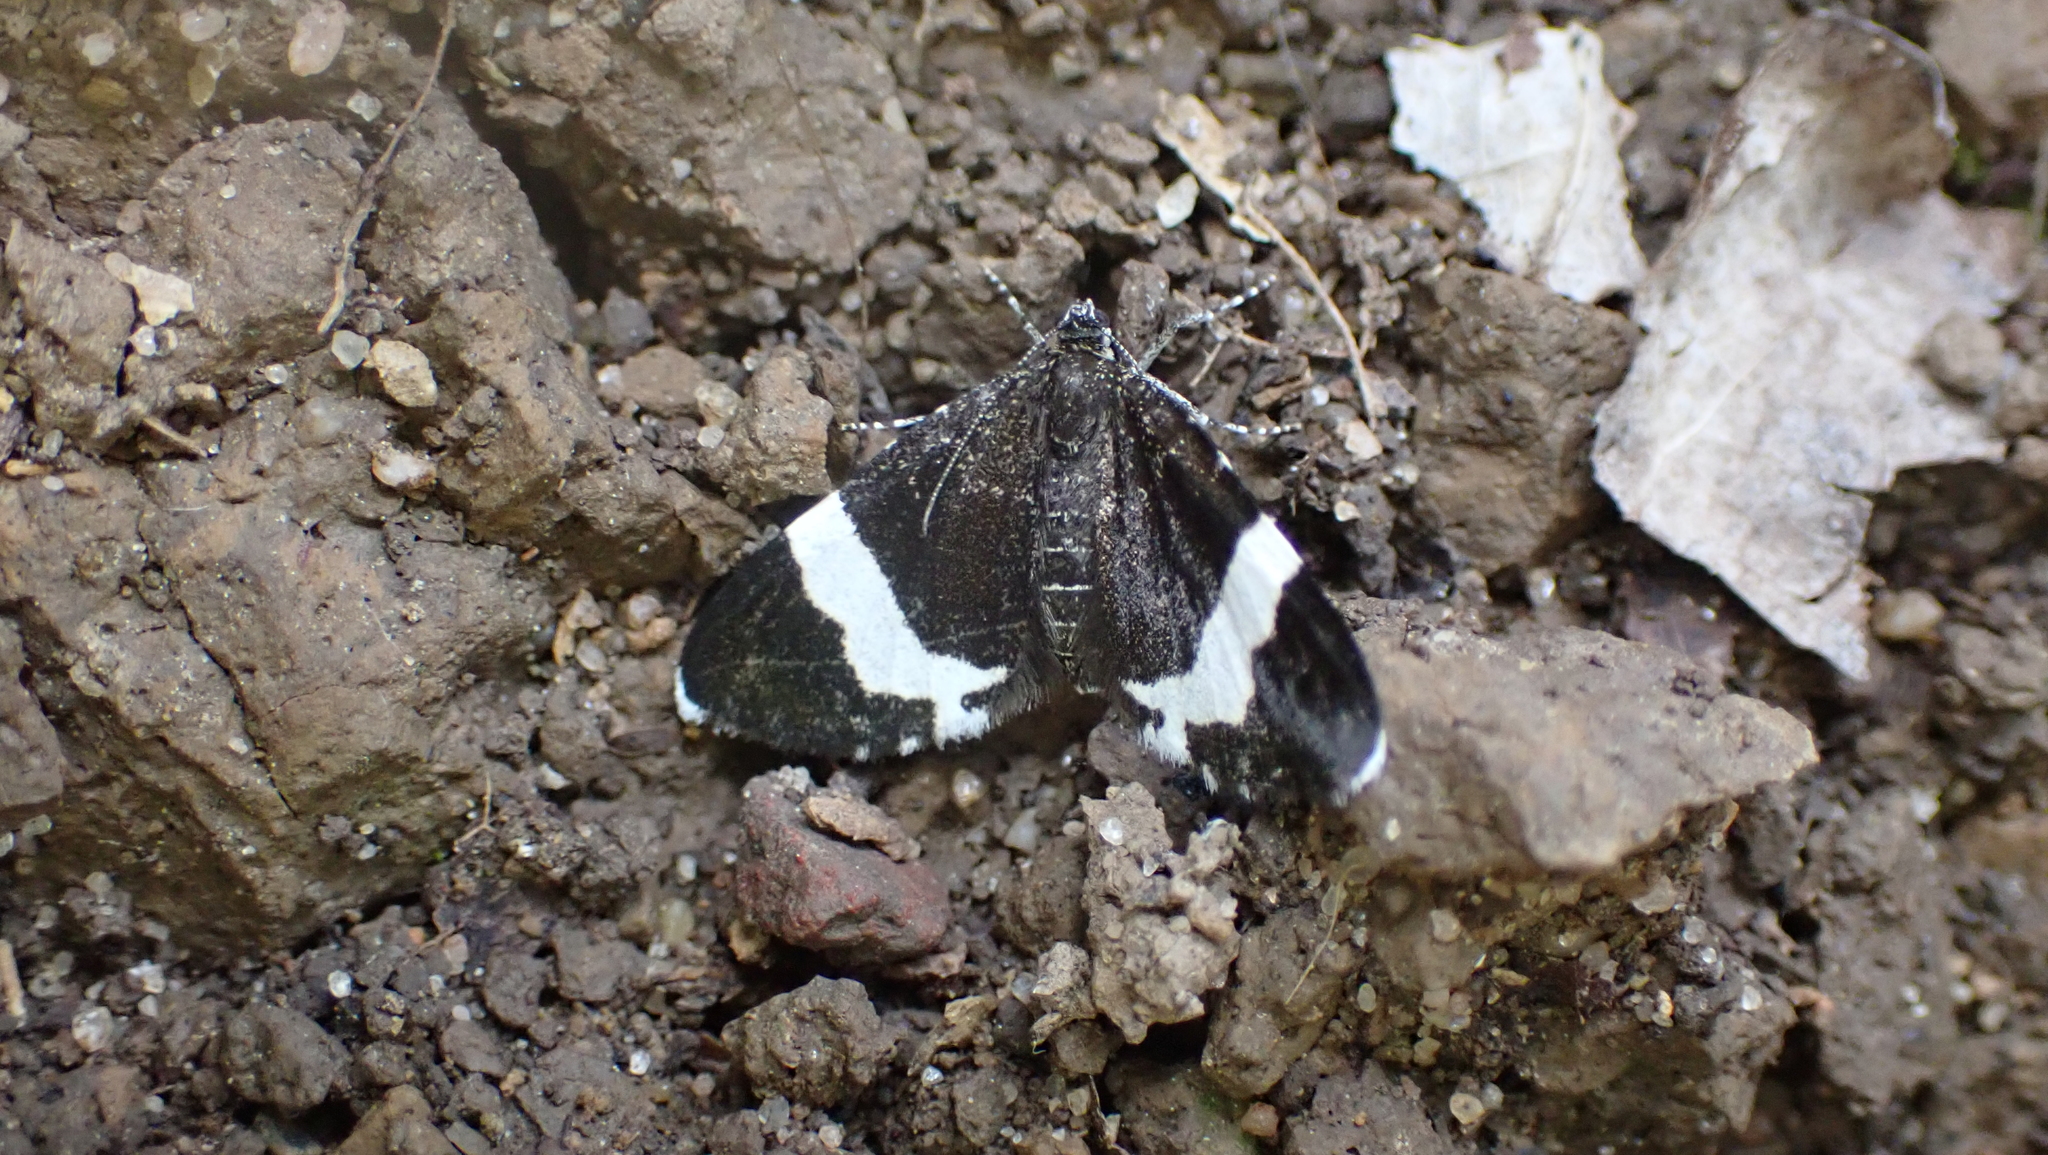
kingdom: Animalia
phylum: Arthropoda
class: Insecta
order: Lepidoptera
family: Geometridae
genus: Trichodezia
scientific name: Trichodezia albovittata
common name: White striped black
